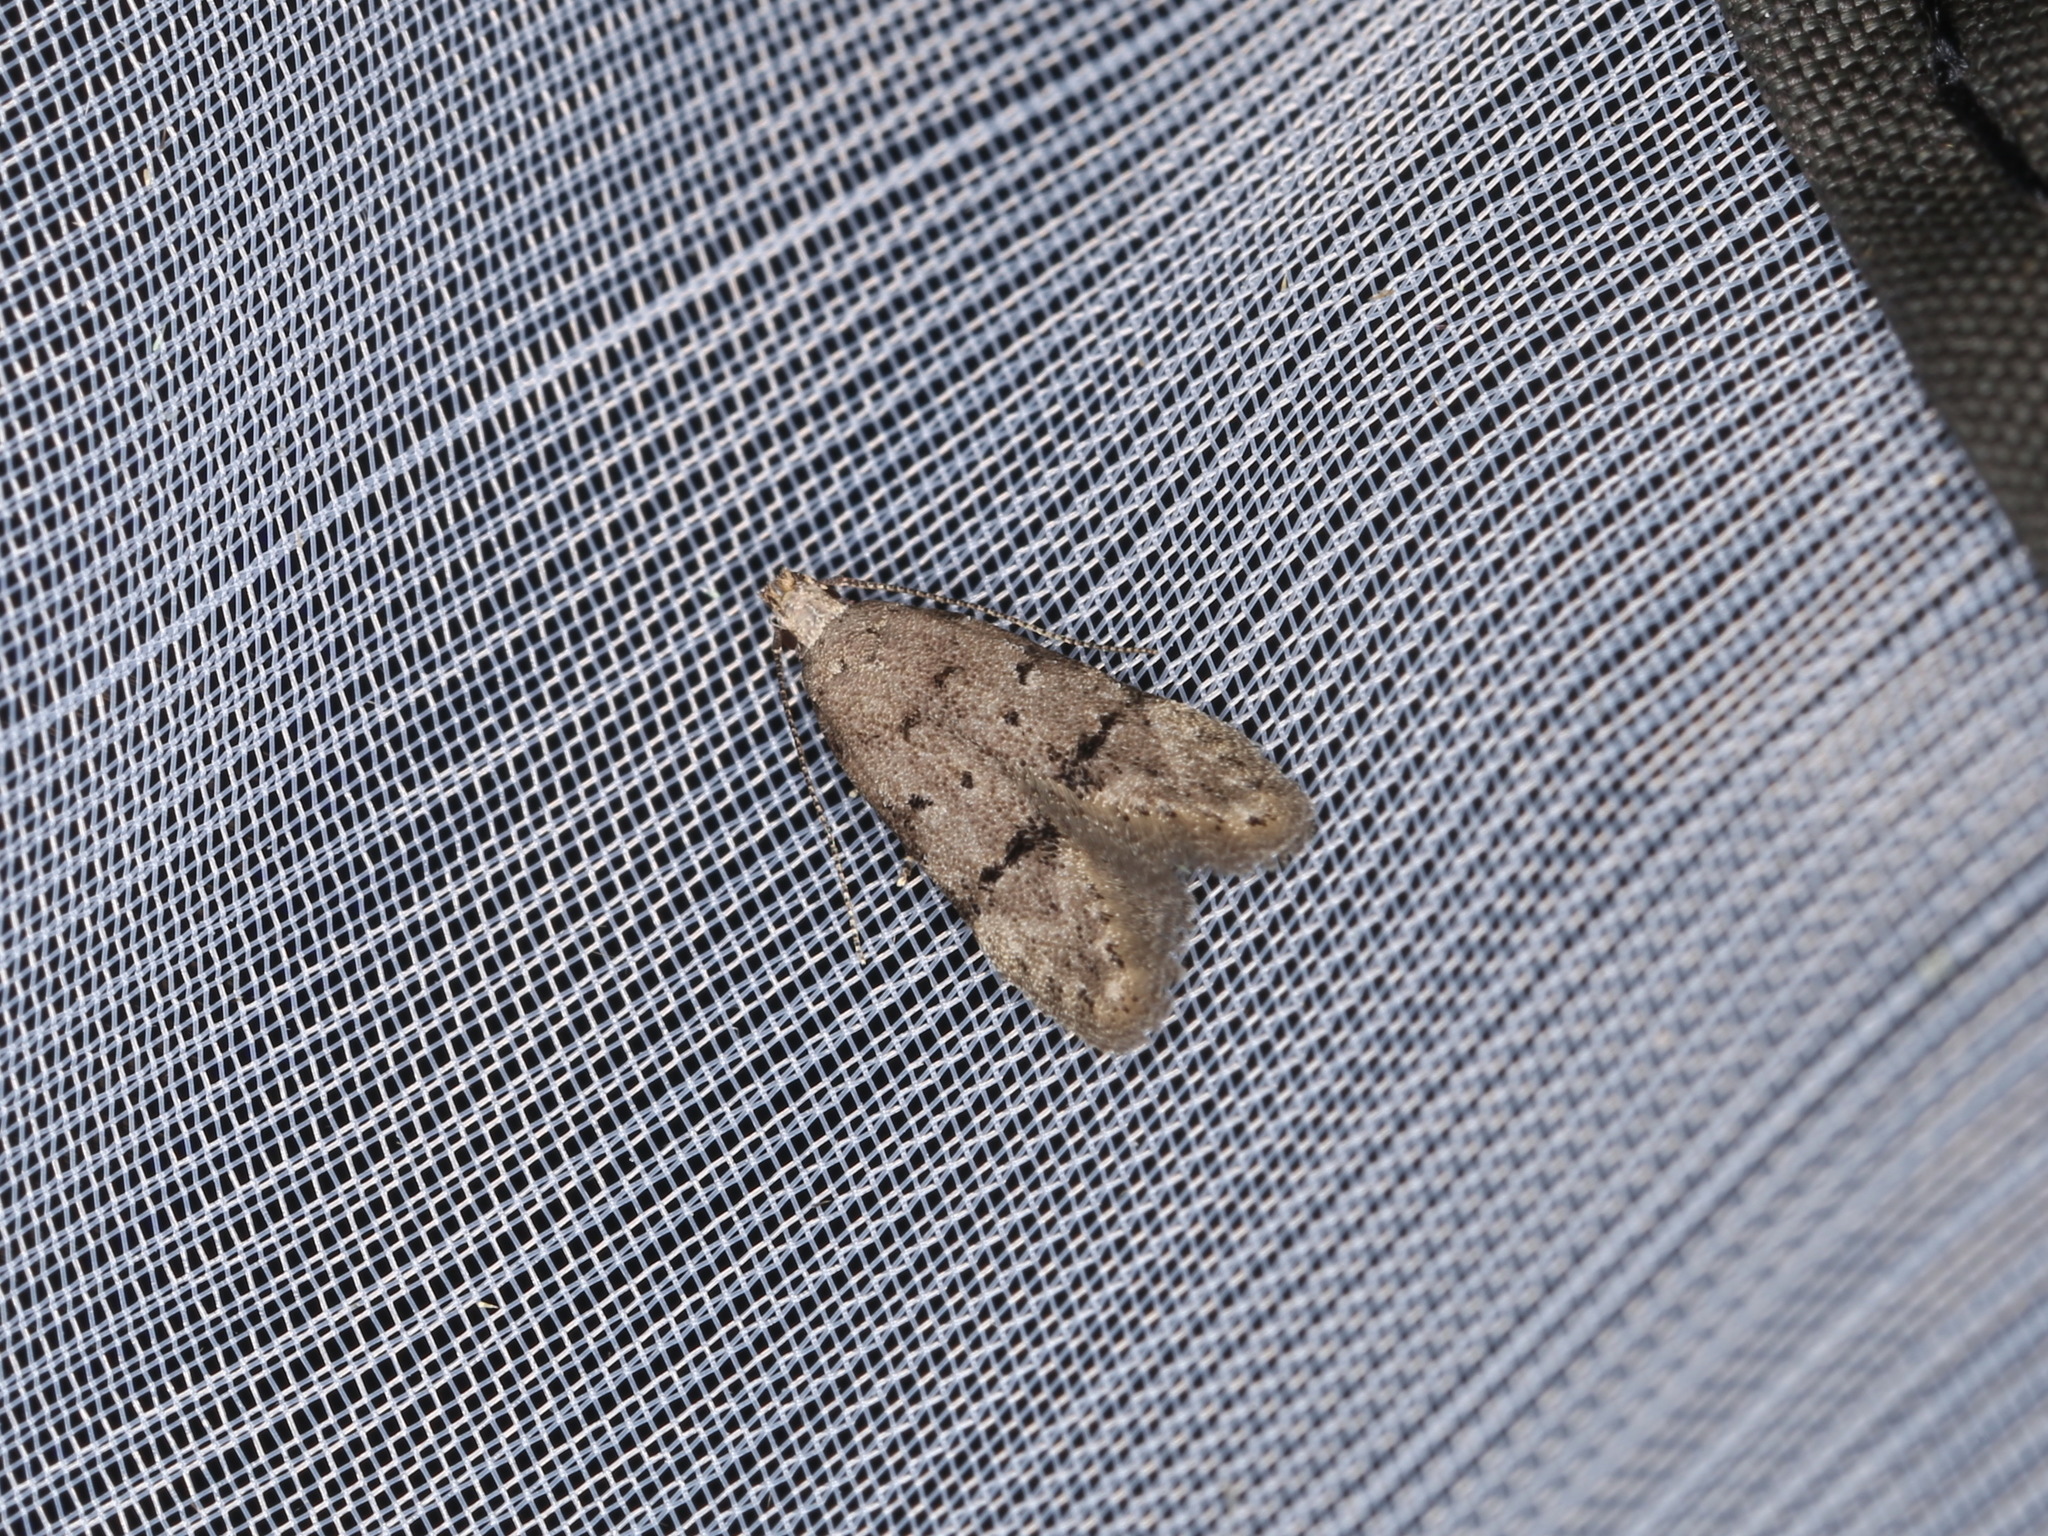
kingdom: Animalia
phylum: Arthropoda
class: Insecta
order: Lepidoptera
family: Gelechiidae
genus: Teleiodes
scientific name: Teleiodes vulgella
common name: Common groundling
